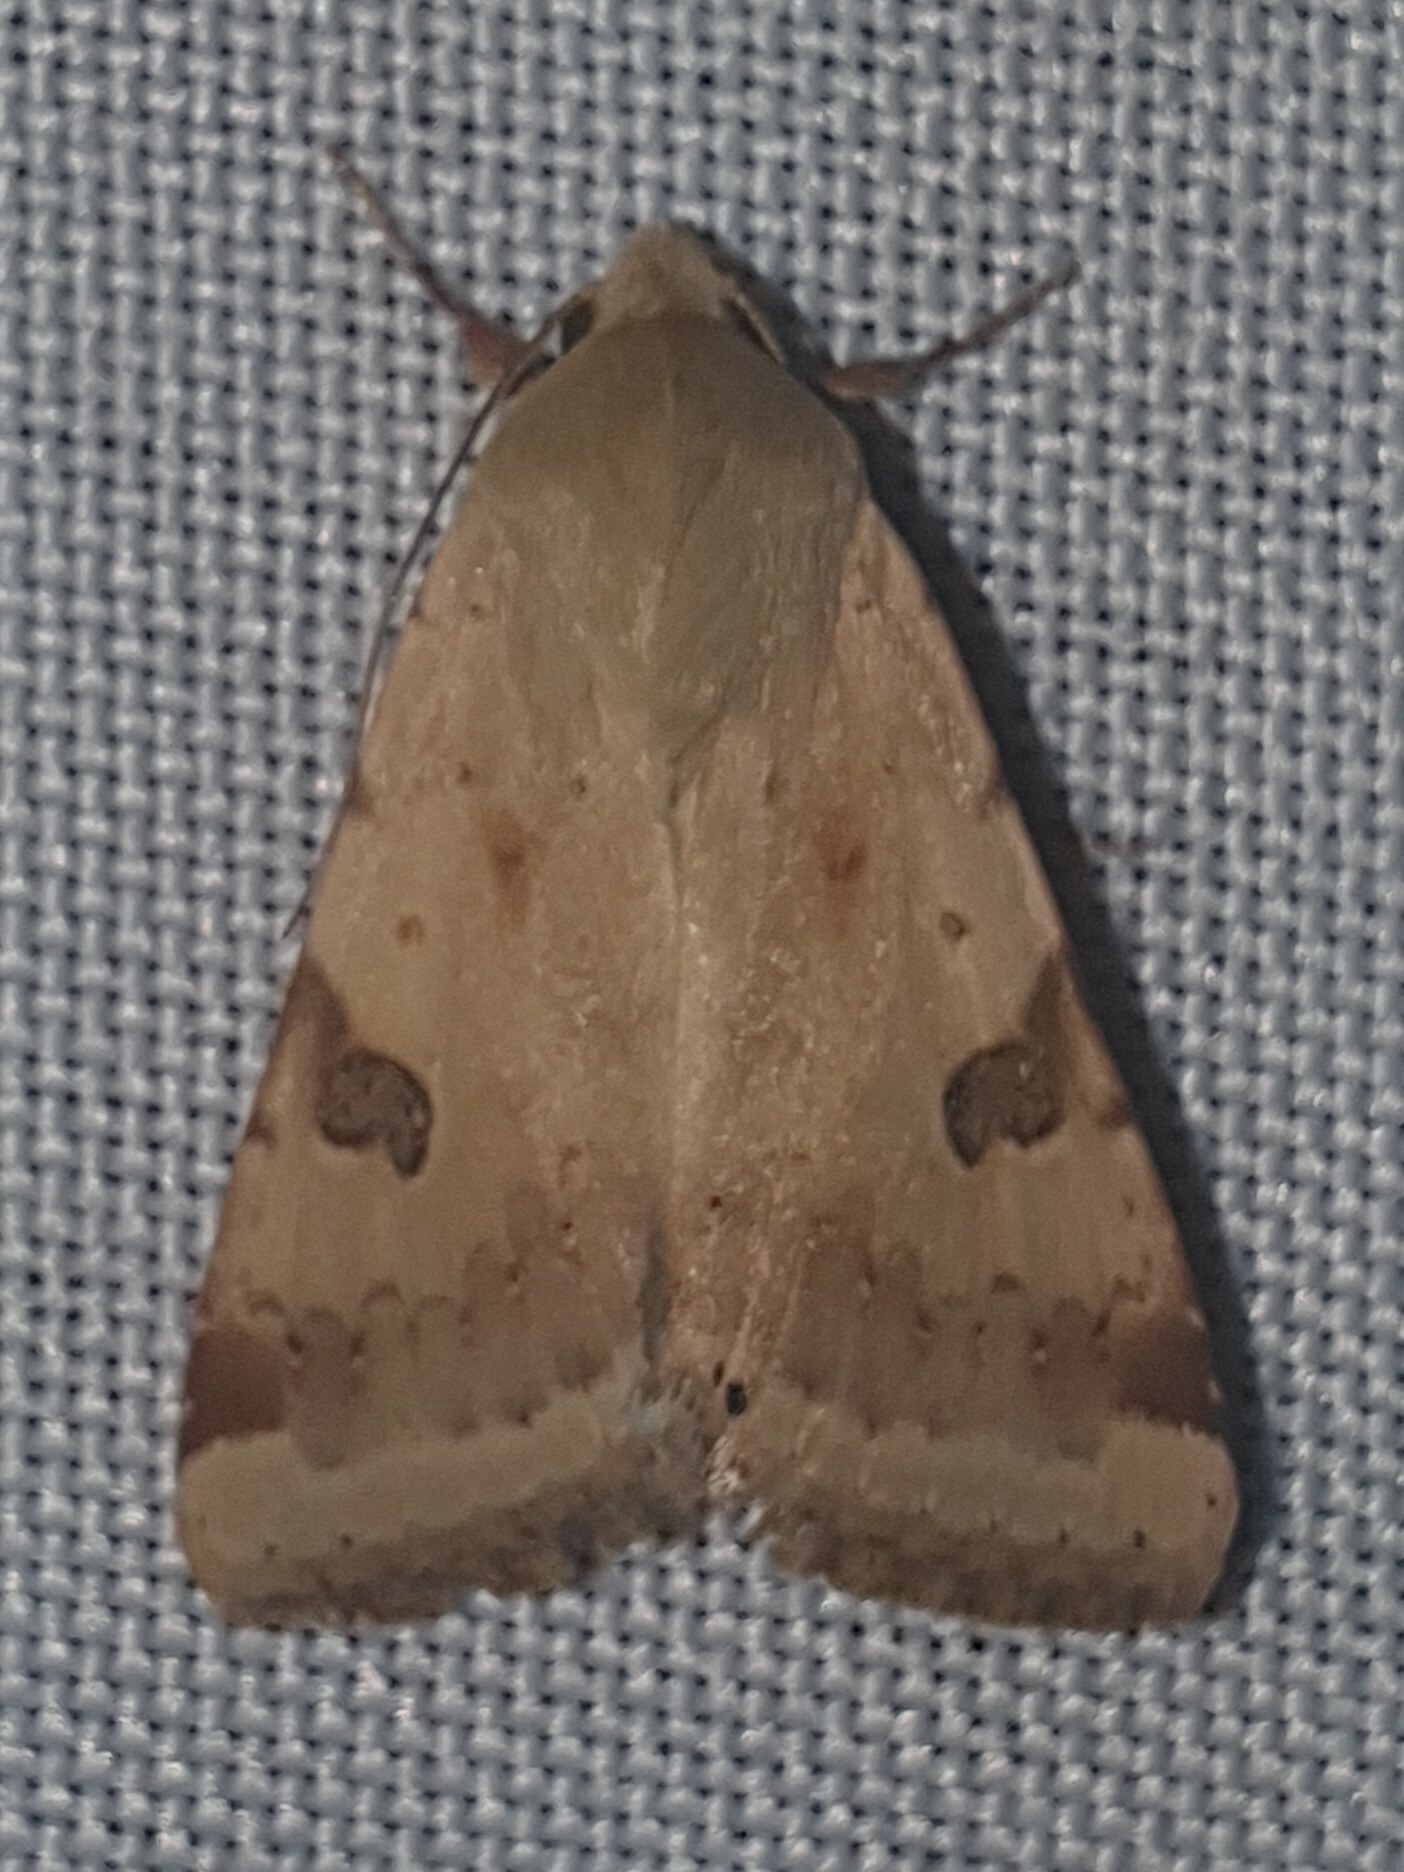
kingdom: Animalia
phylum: Arthropoda
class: Insecta
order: Lepidoptera
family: Noctuidae
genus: Heliothis
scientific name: Heliothis peltigera
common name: Bordered straw
